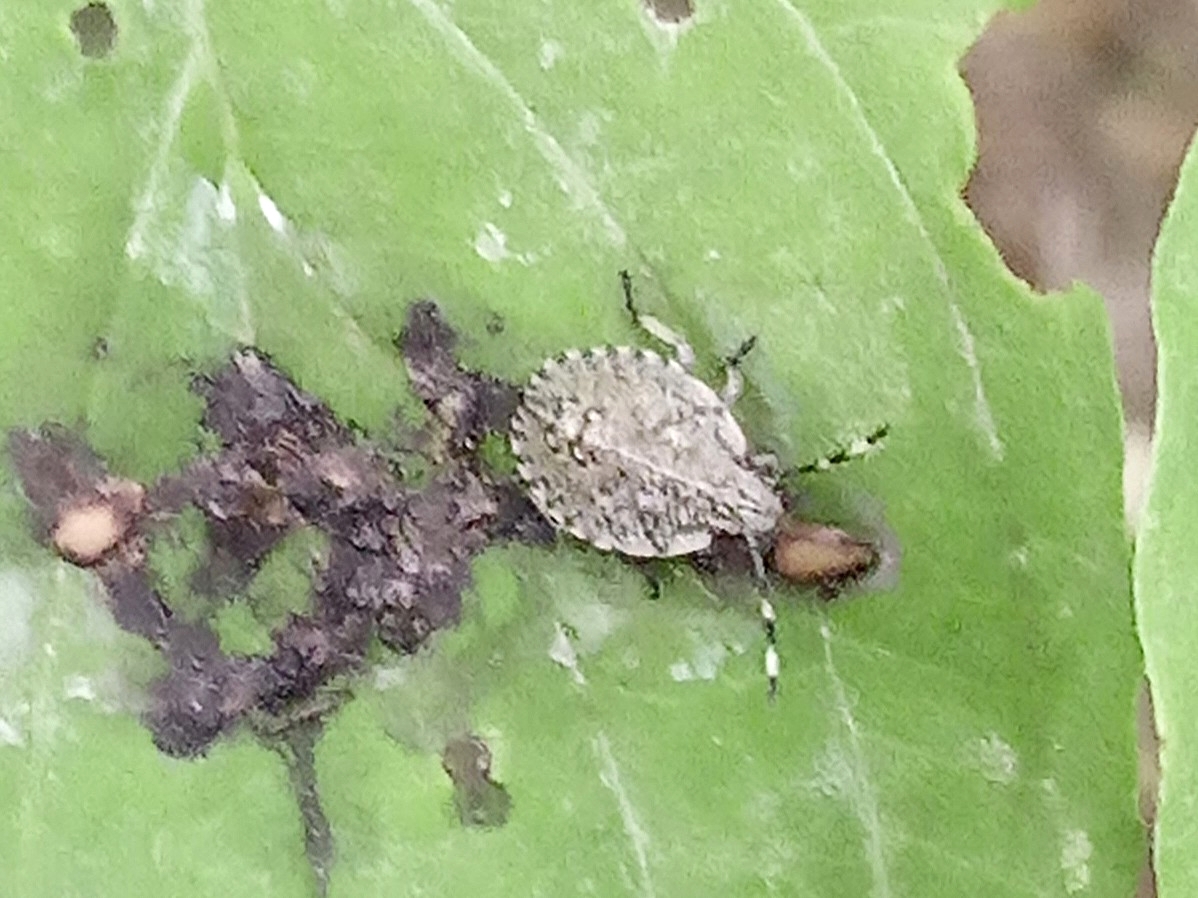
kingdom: Animalia
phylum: Arthropoda
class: Insecta
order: Hemiptera
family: Pentatomidae
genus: Rhaphigaster
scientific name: Rhaphigaster nebulosa
